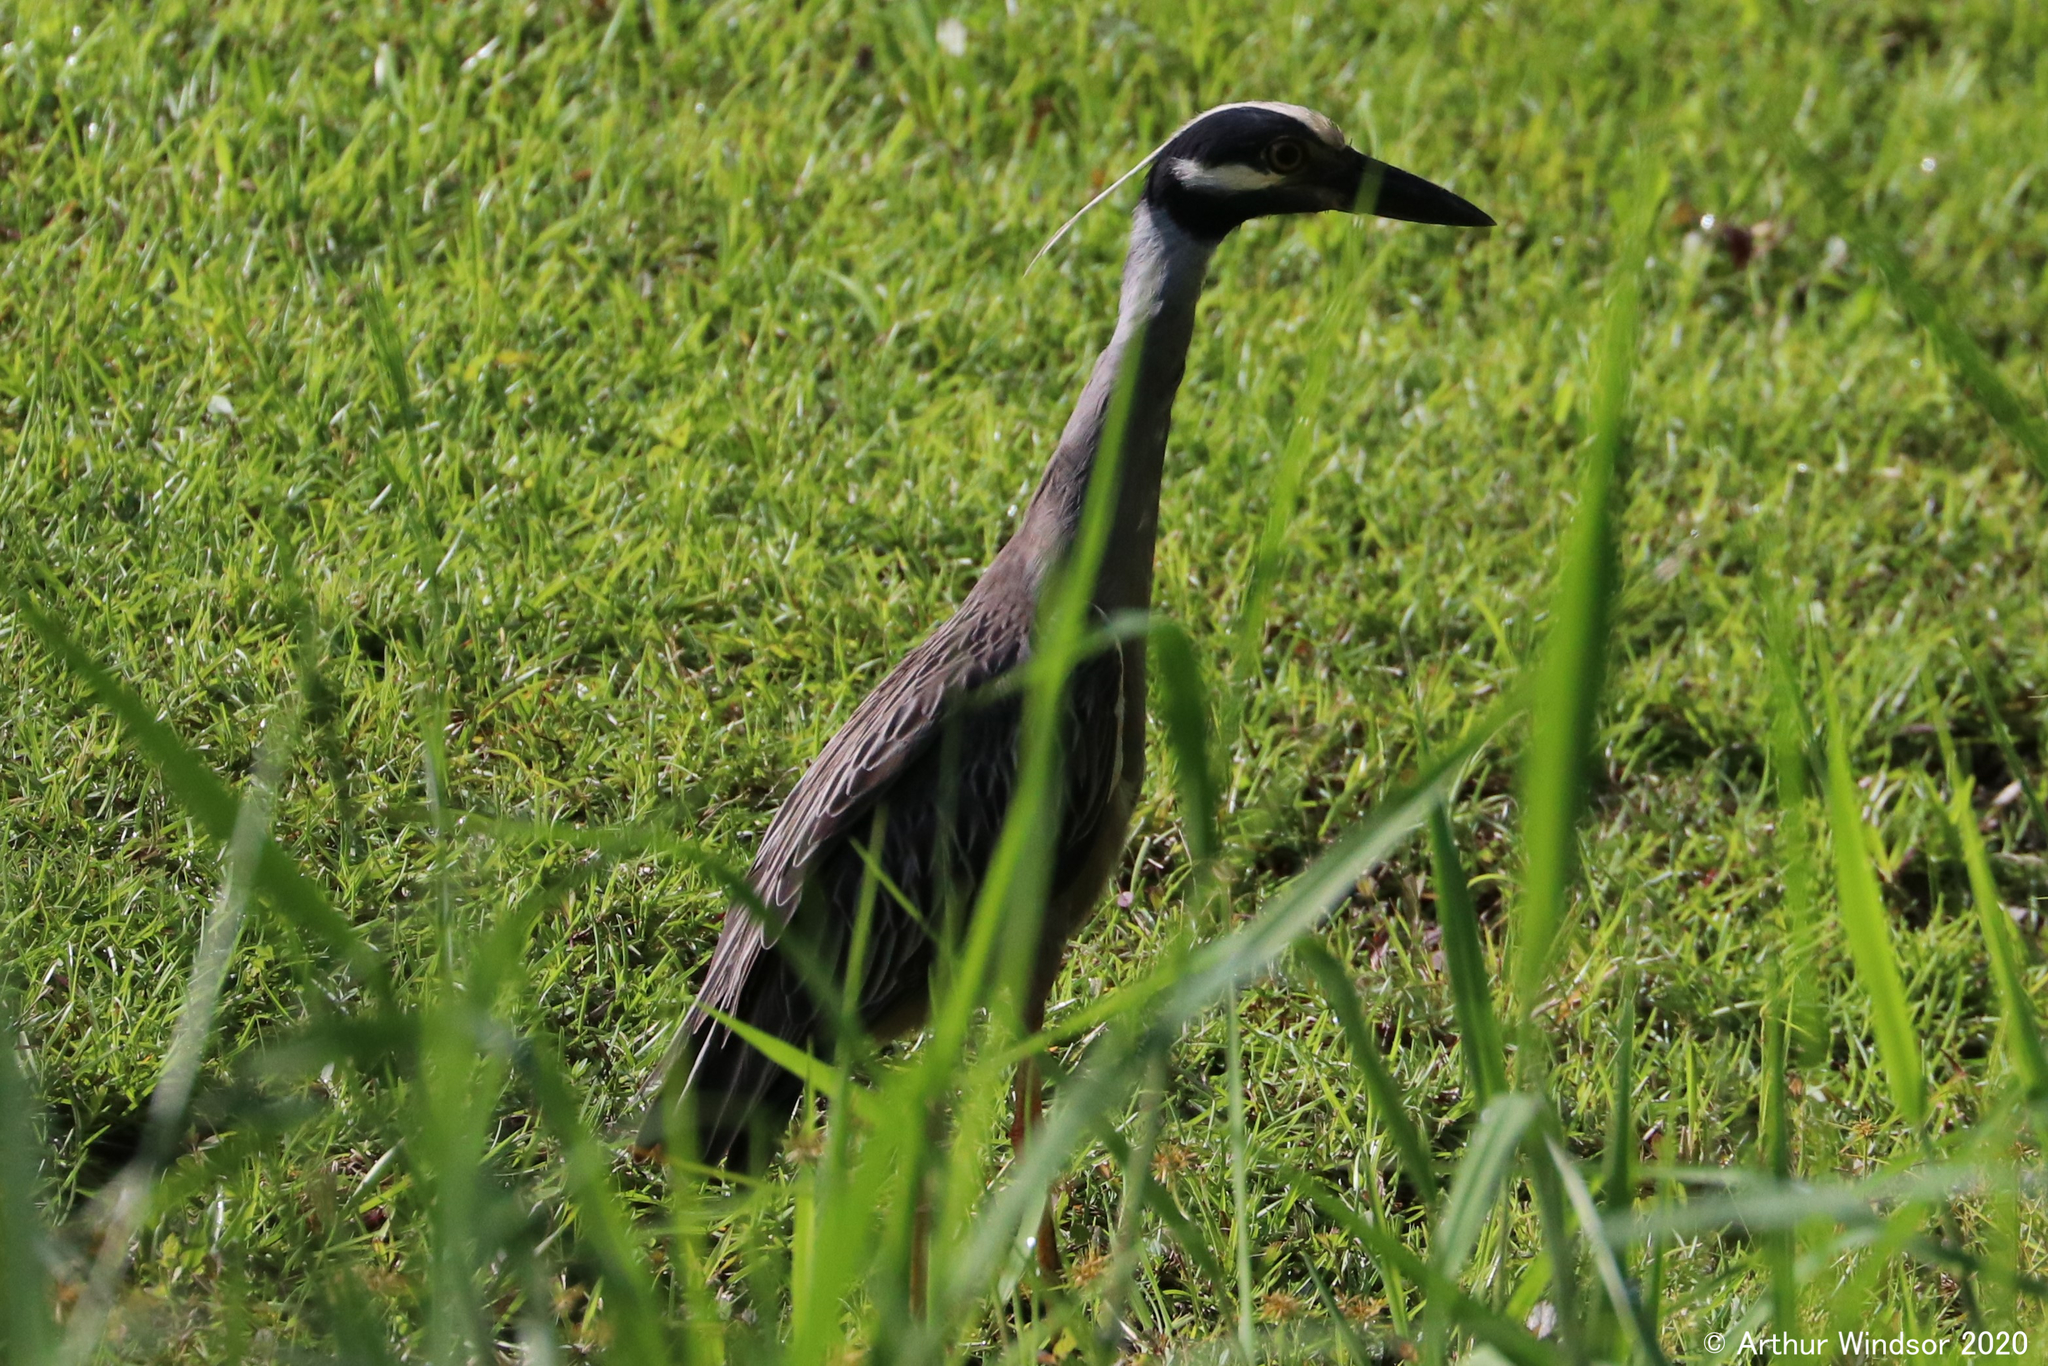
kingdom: Animalia
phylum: Chordata
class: Aves
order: Pelecaniformes
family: Ardeidae
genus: Nyctanassa
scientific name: Nyctanassa violacea
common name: Yellow-crowned night heron
